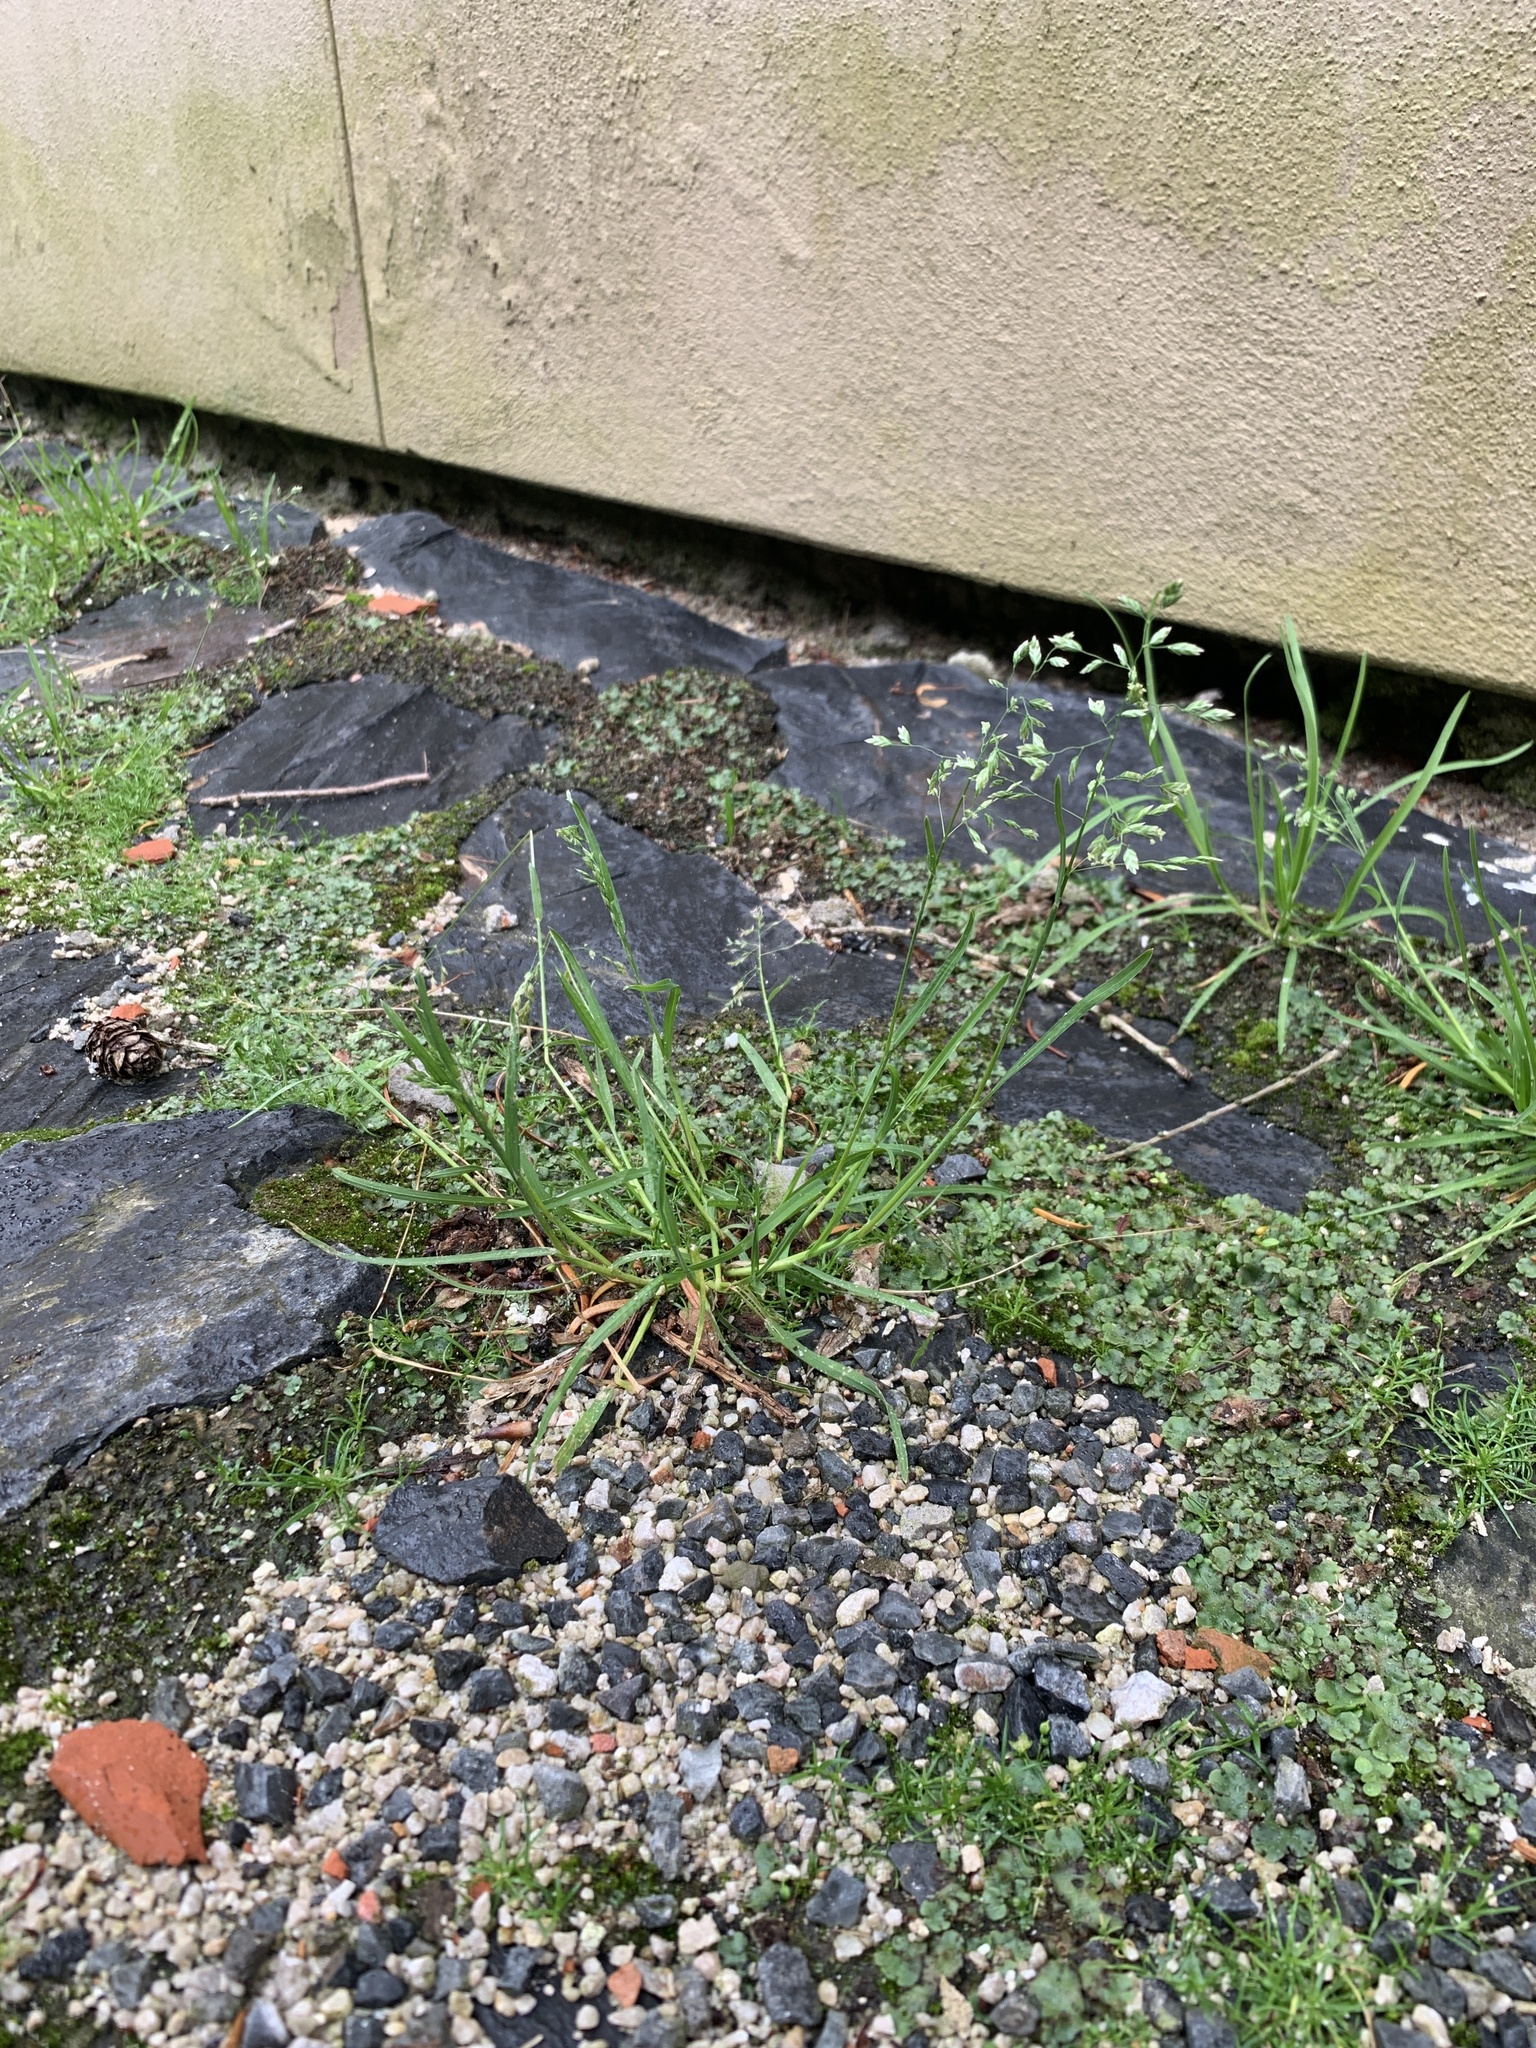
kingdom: Plantae
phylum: Tracheophyta
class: Liliopsida
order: Poales
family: Poaceae
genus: Poa
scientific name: Poa annua
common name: Annual bluegrass
